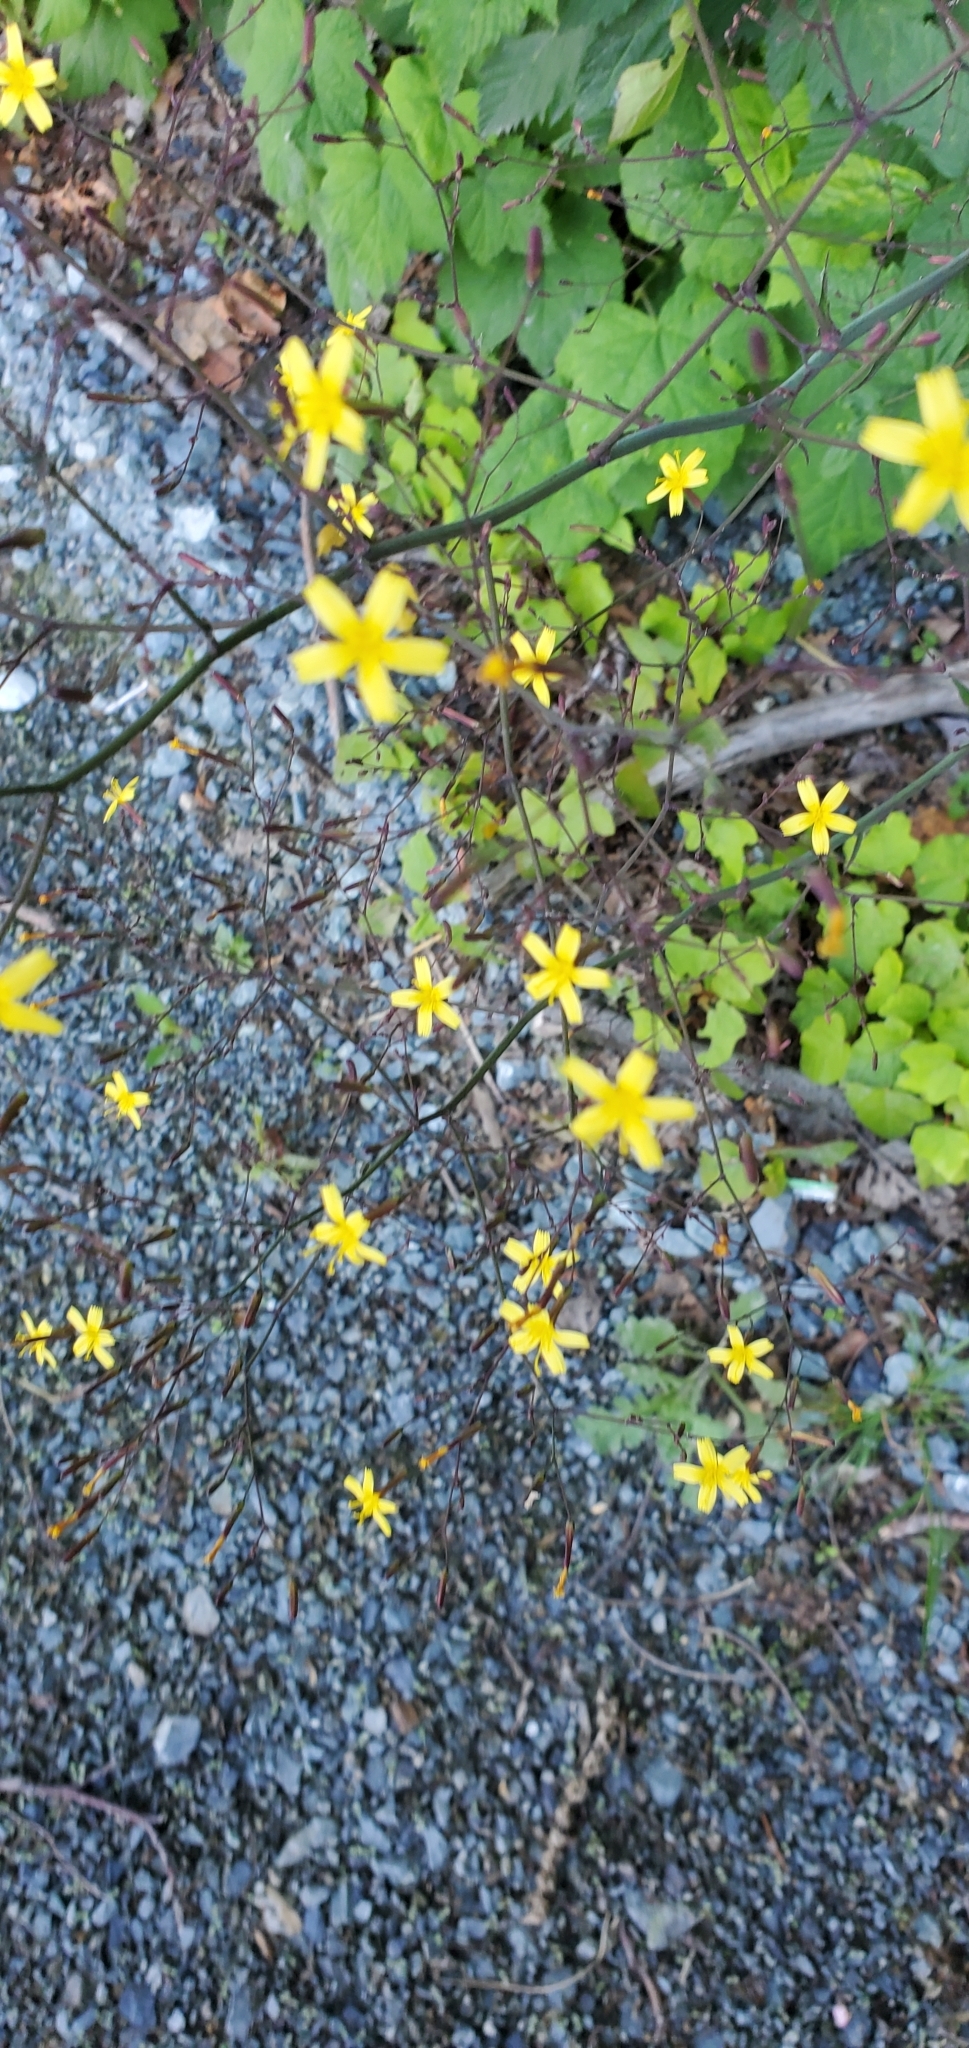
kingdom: Plantae
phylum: Tracheophyta
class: Magnoliopsida
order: Asterales
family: Asteraceae
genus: Mycelis
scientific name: Mycelis muralis
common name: Wall lettuce
